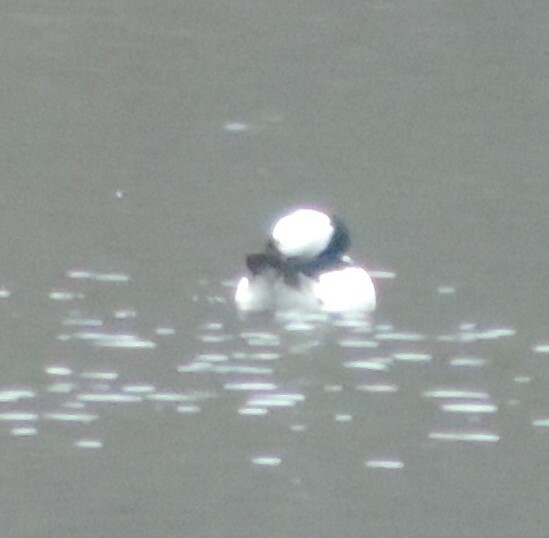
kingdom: Animalia
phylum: Chordata
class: Aves
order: Anseriformes
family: Anatidae
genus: Bucephala
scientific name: Bucephala albeola
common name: Bufflehead
